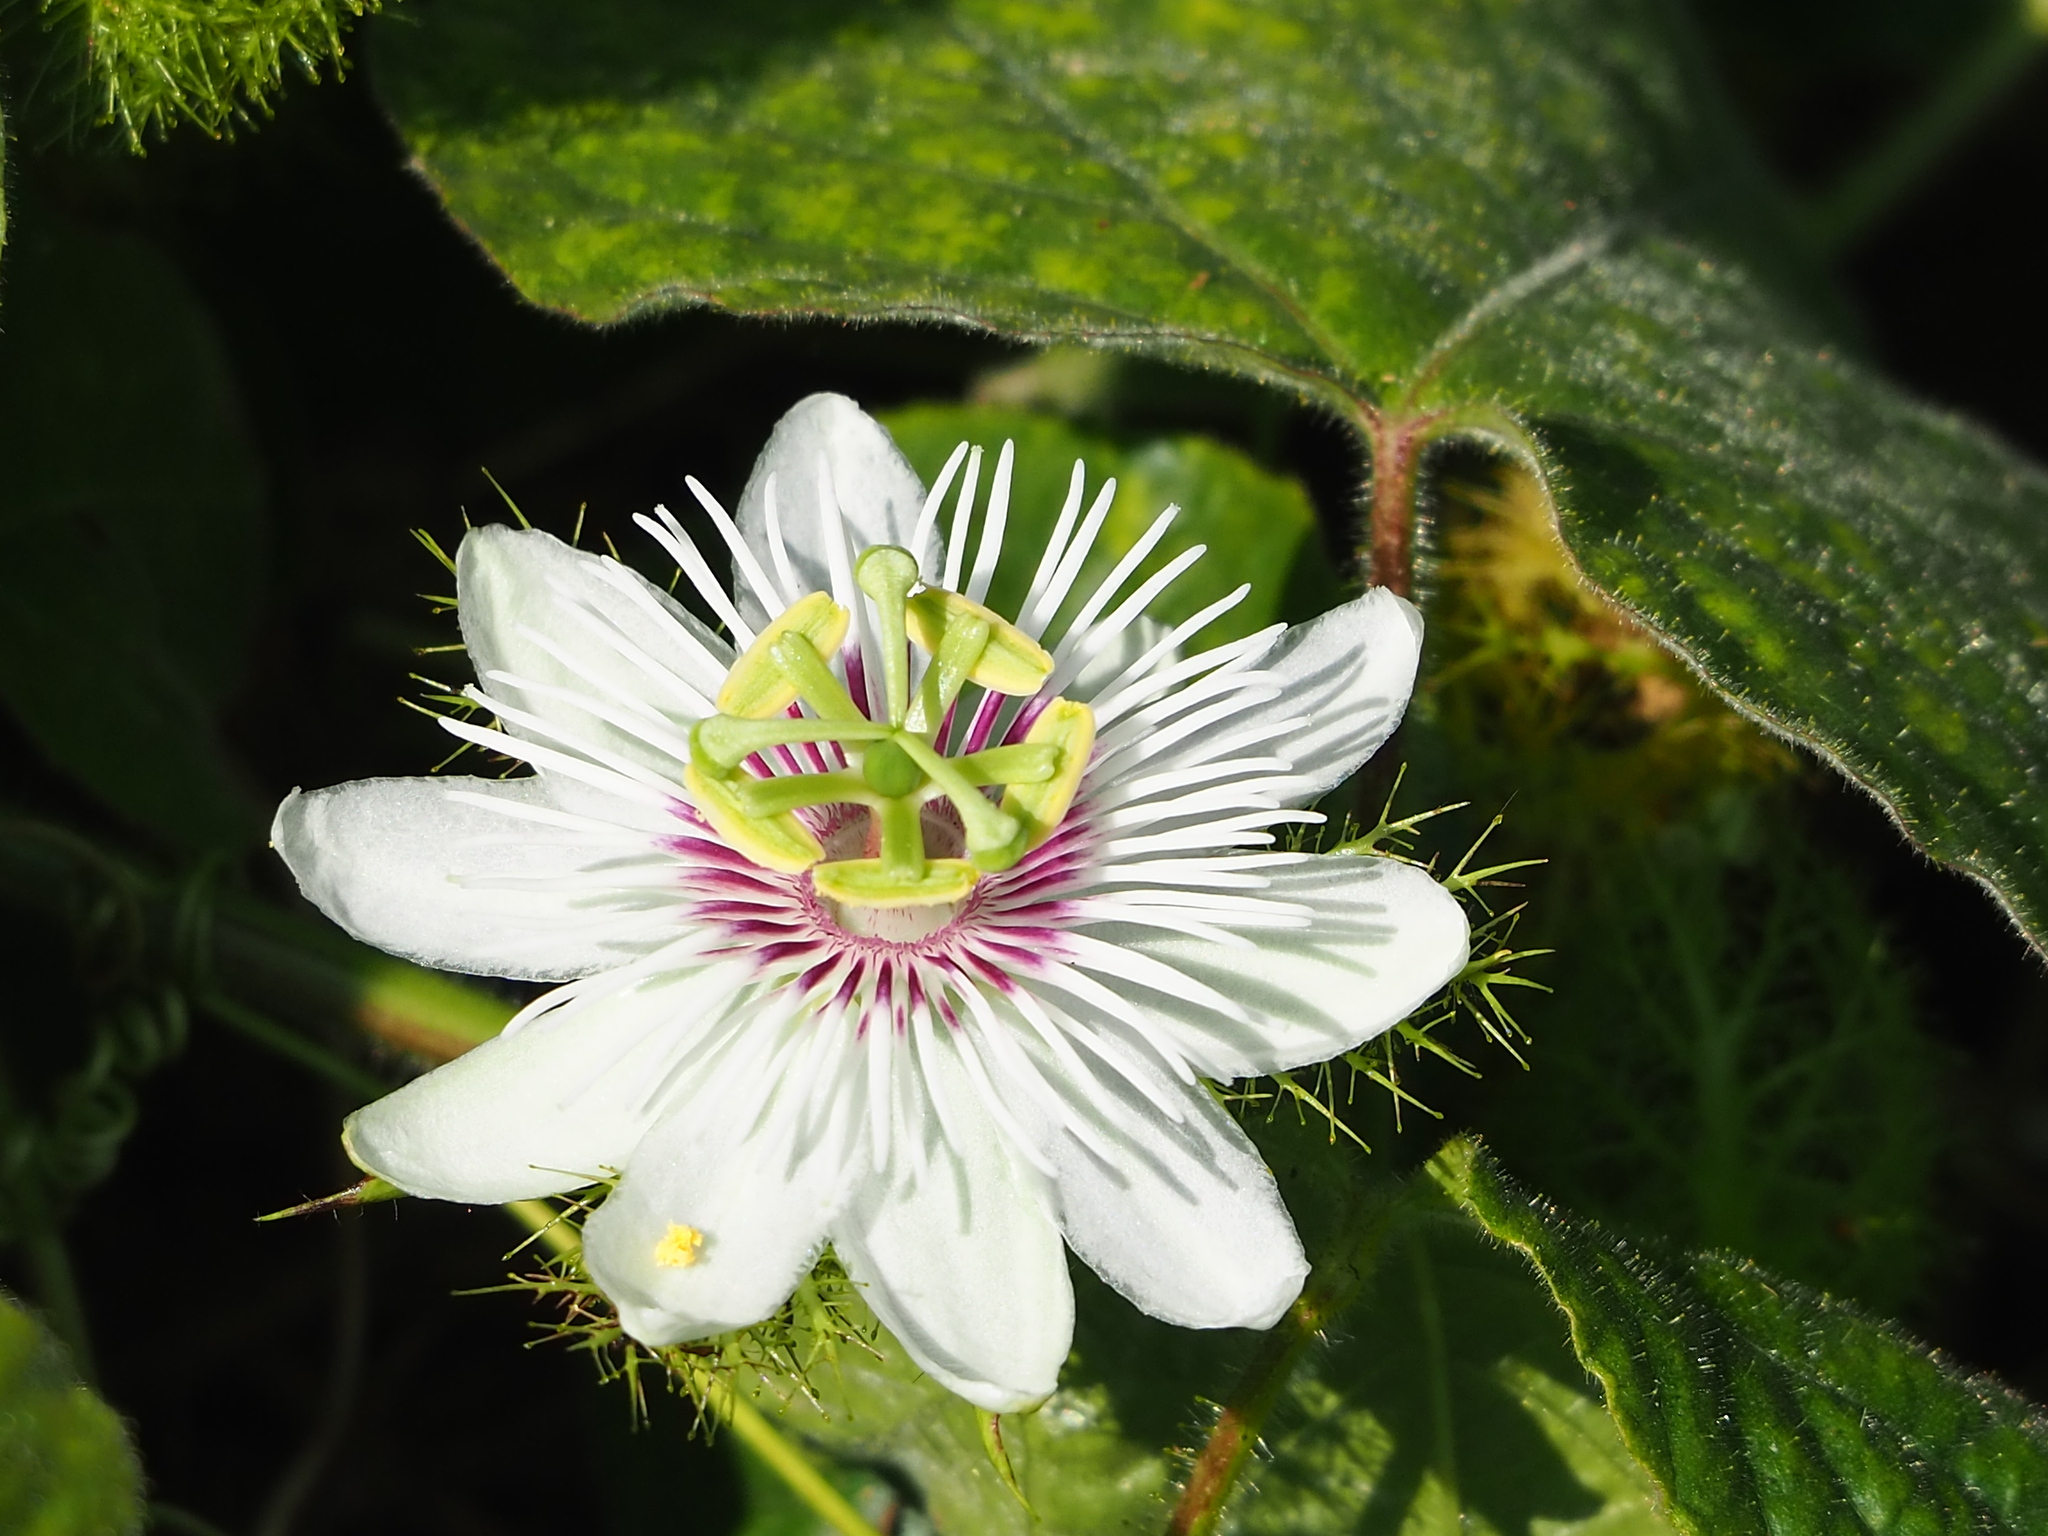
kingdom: Plantae
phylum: Tracheophyta
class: Magnoliopsida
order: Malpighiales
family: Passifloraceae
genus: Passiflora
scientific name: Passiflora vesicaria
